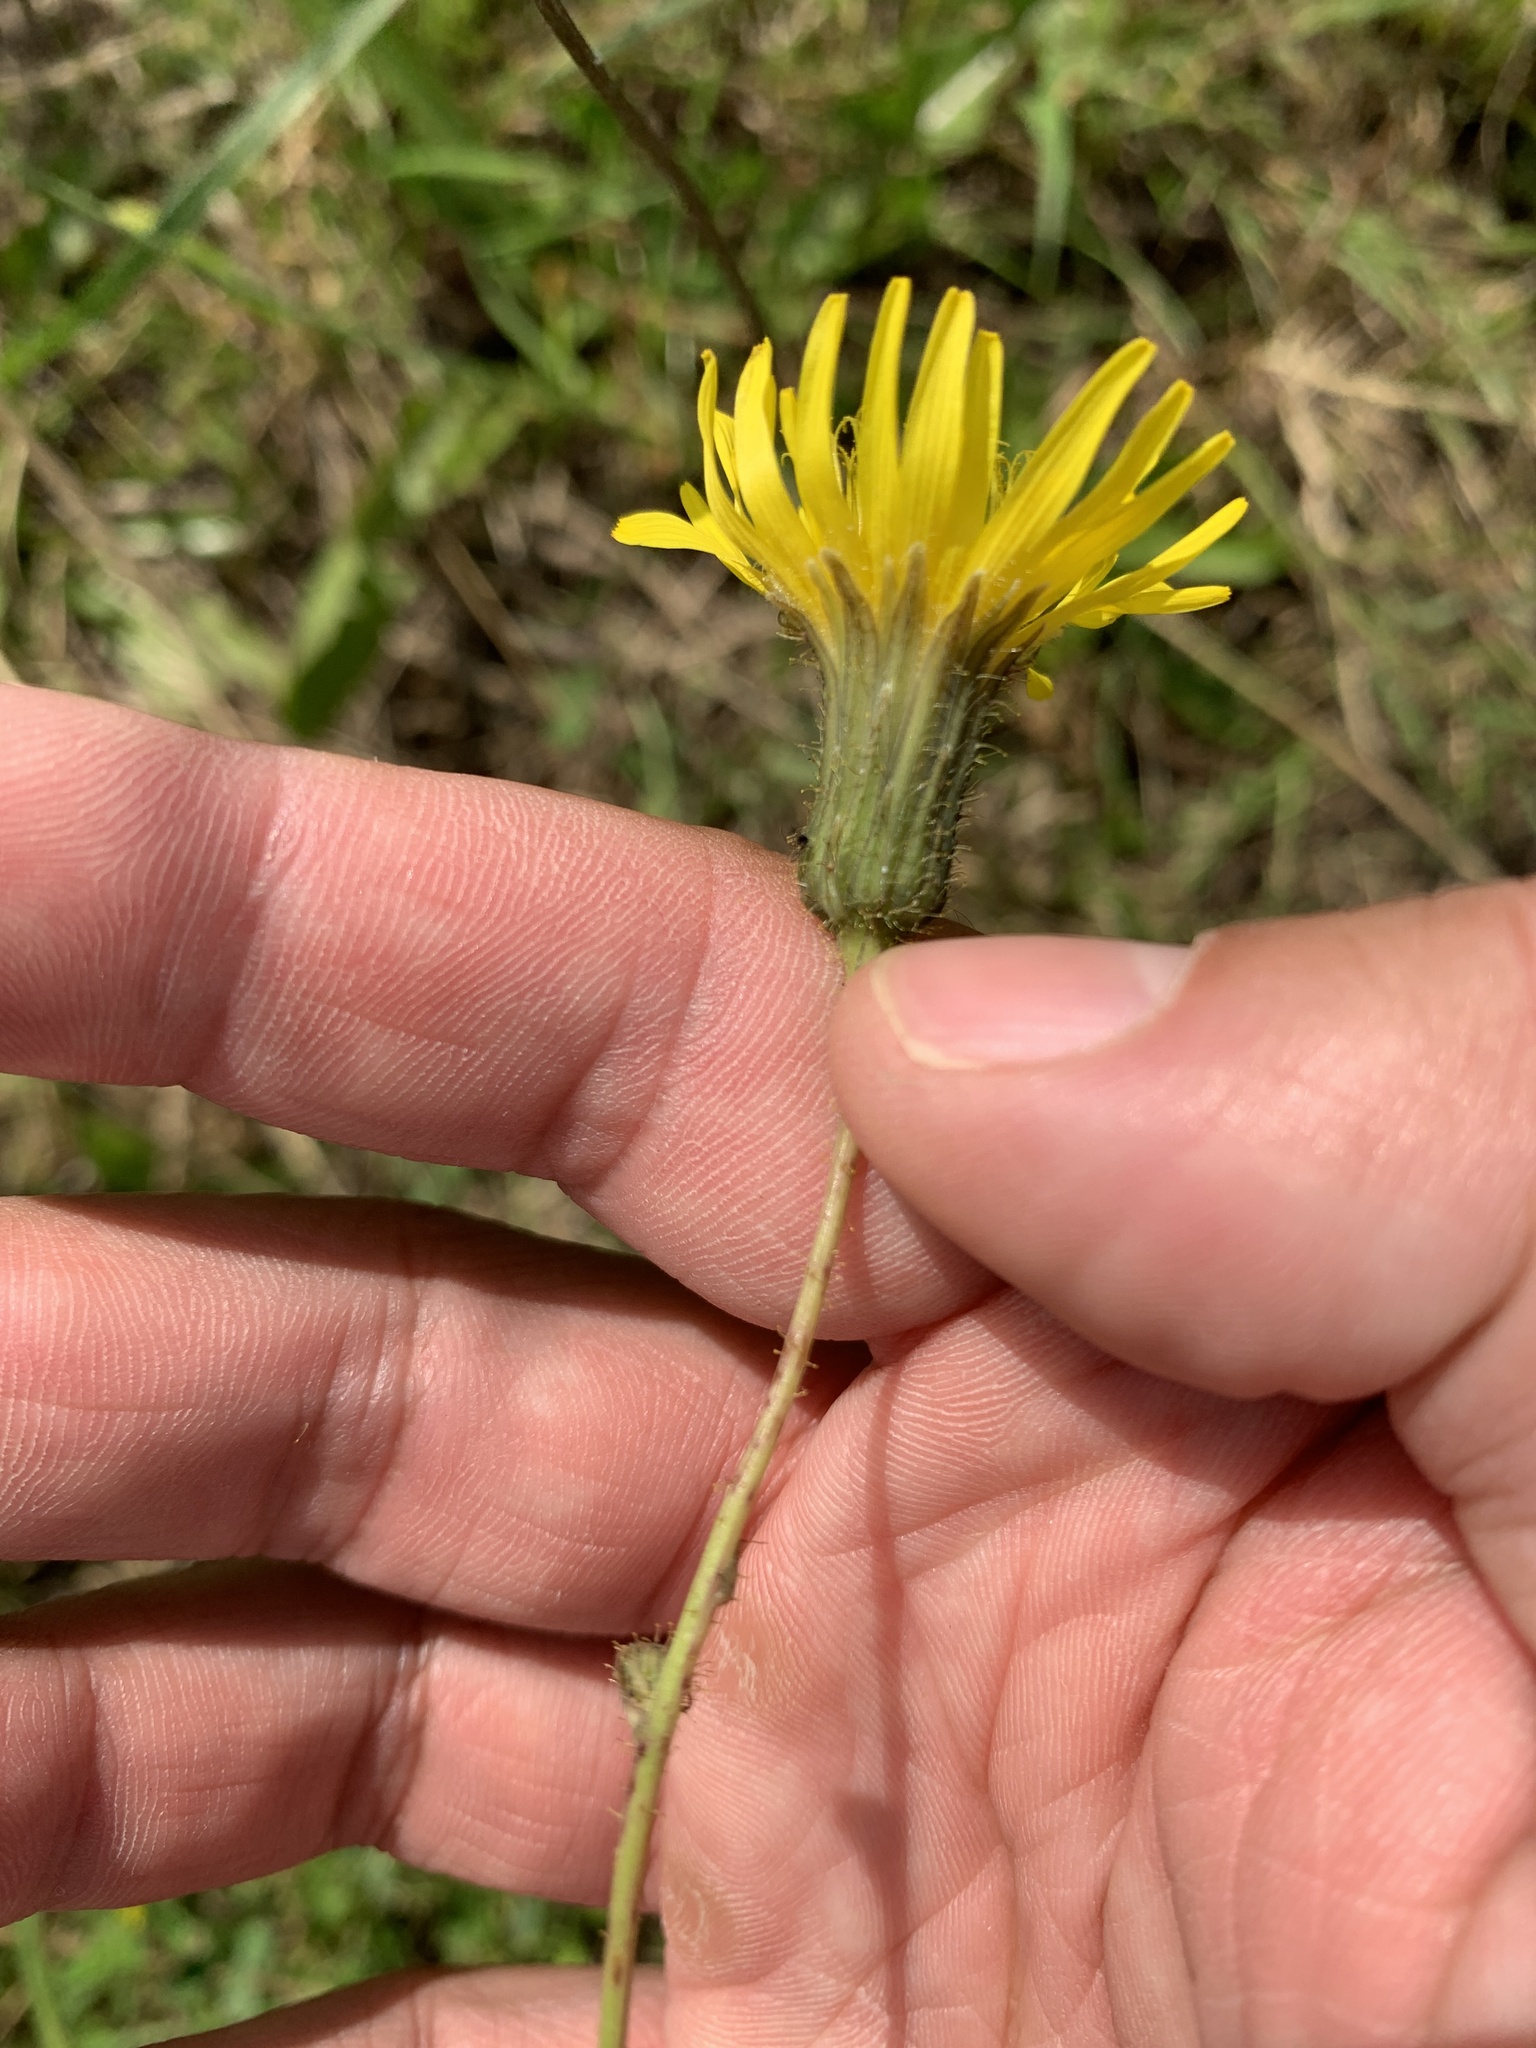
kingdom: Plantae
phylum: Tracheophyta
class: Magnoliopsida
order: Asterales
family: Asteraceae
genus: Sonchus
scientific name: Sonchus arvensis
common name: Perennial sow-thistle
